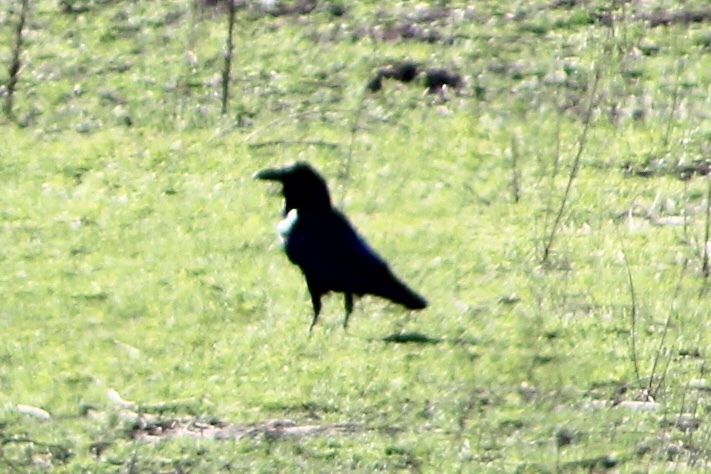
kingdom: Animalia
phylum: Chordata
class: Aves
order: Passeriformes
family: Corvidae
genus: Corvus
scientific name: Corvus corax
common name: Common raven
